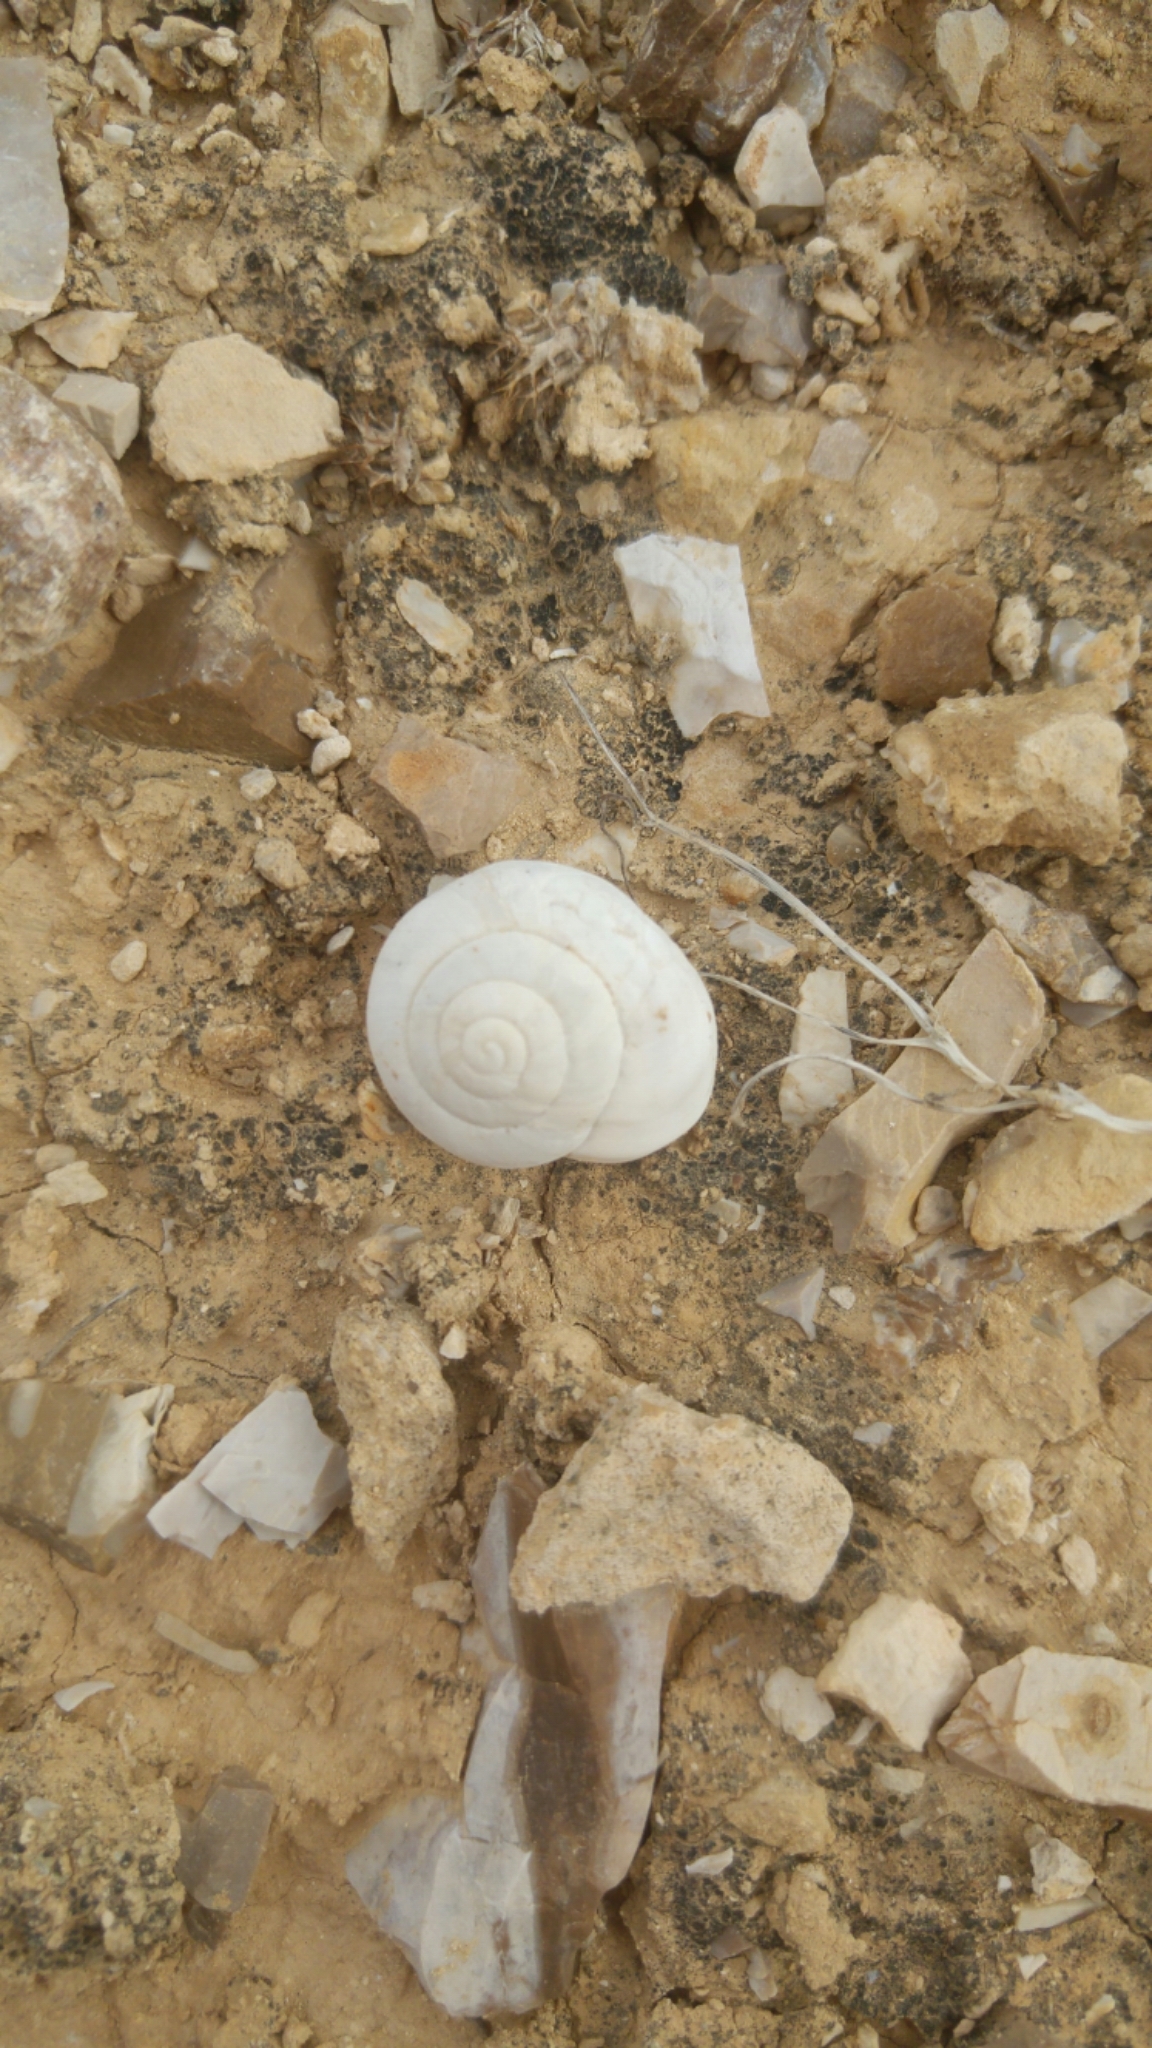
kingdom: Animalia
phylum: Mollusca
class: Gastropoda
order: Stylommatophora
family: Sphincterochilidae
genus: Sphincterochila
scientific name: Sphincterochila zonata
